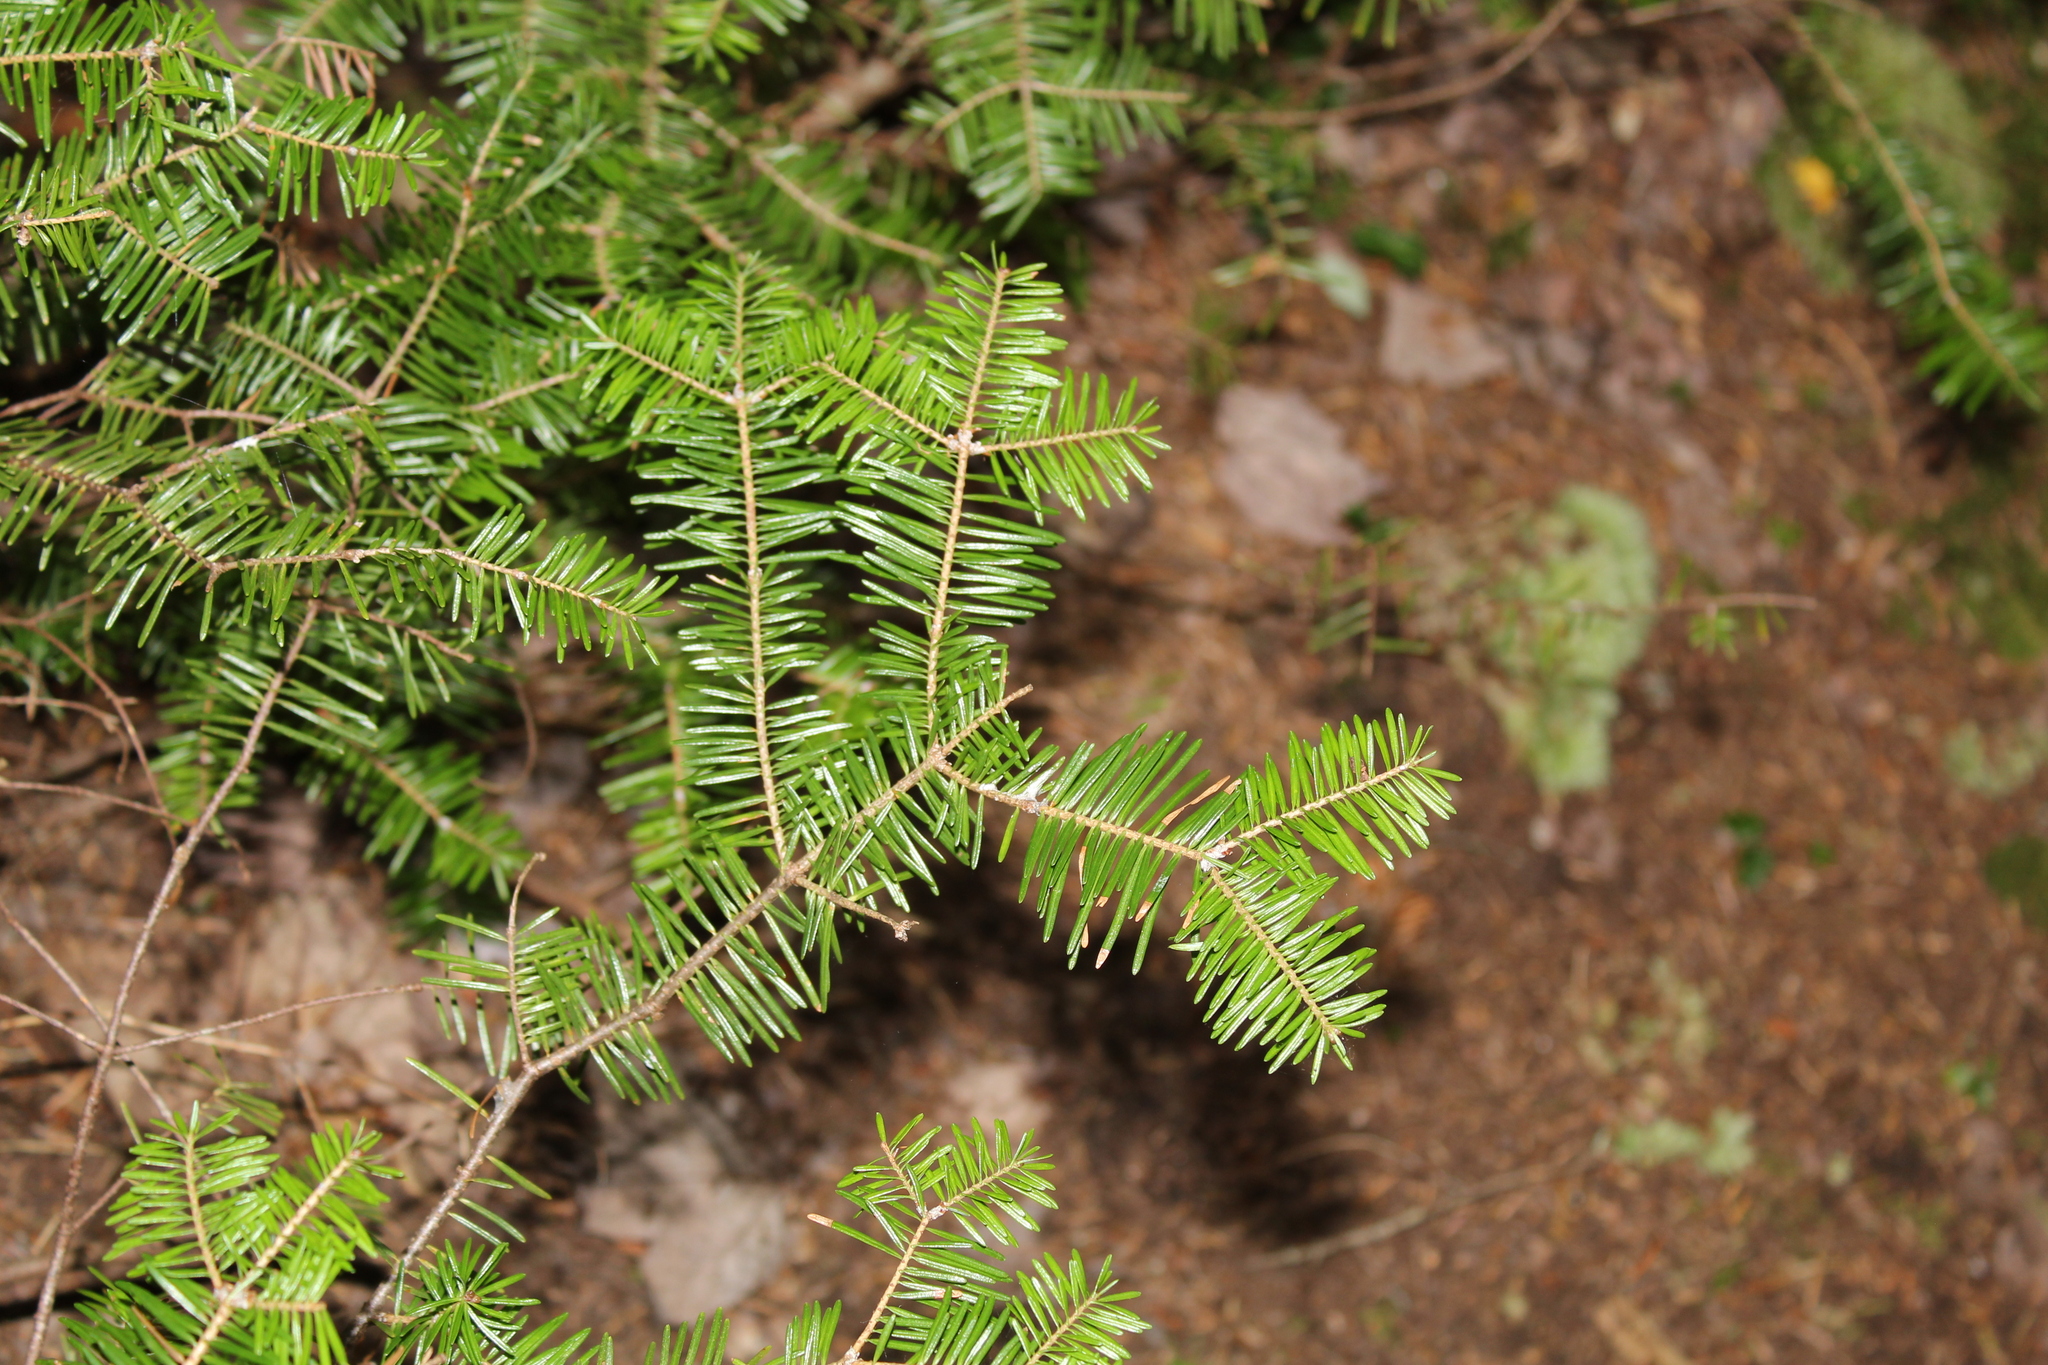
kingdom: Plantae
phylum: Tracheophyta
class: Pinopsida
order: Pinales
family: Pinaceae
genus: Abies
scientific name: Abies balsamea
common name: Balsam fir
